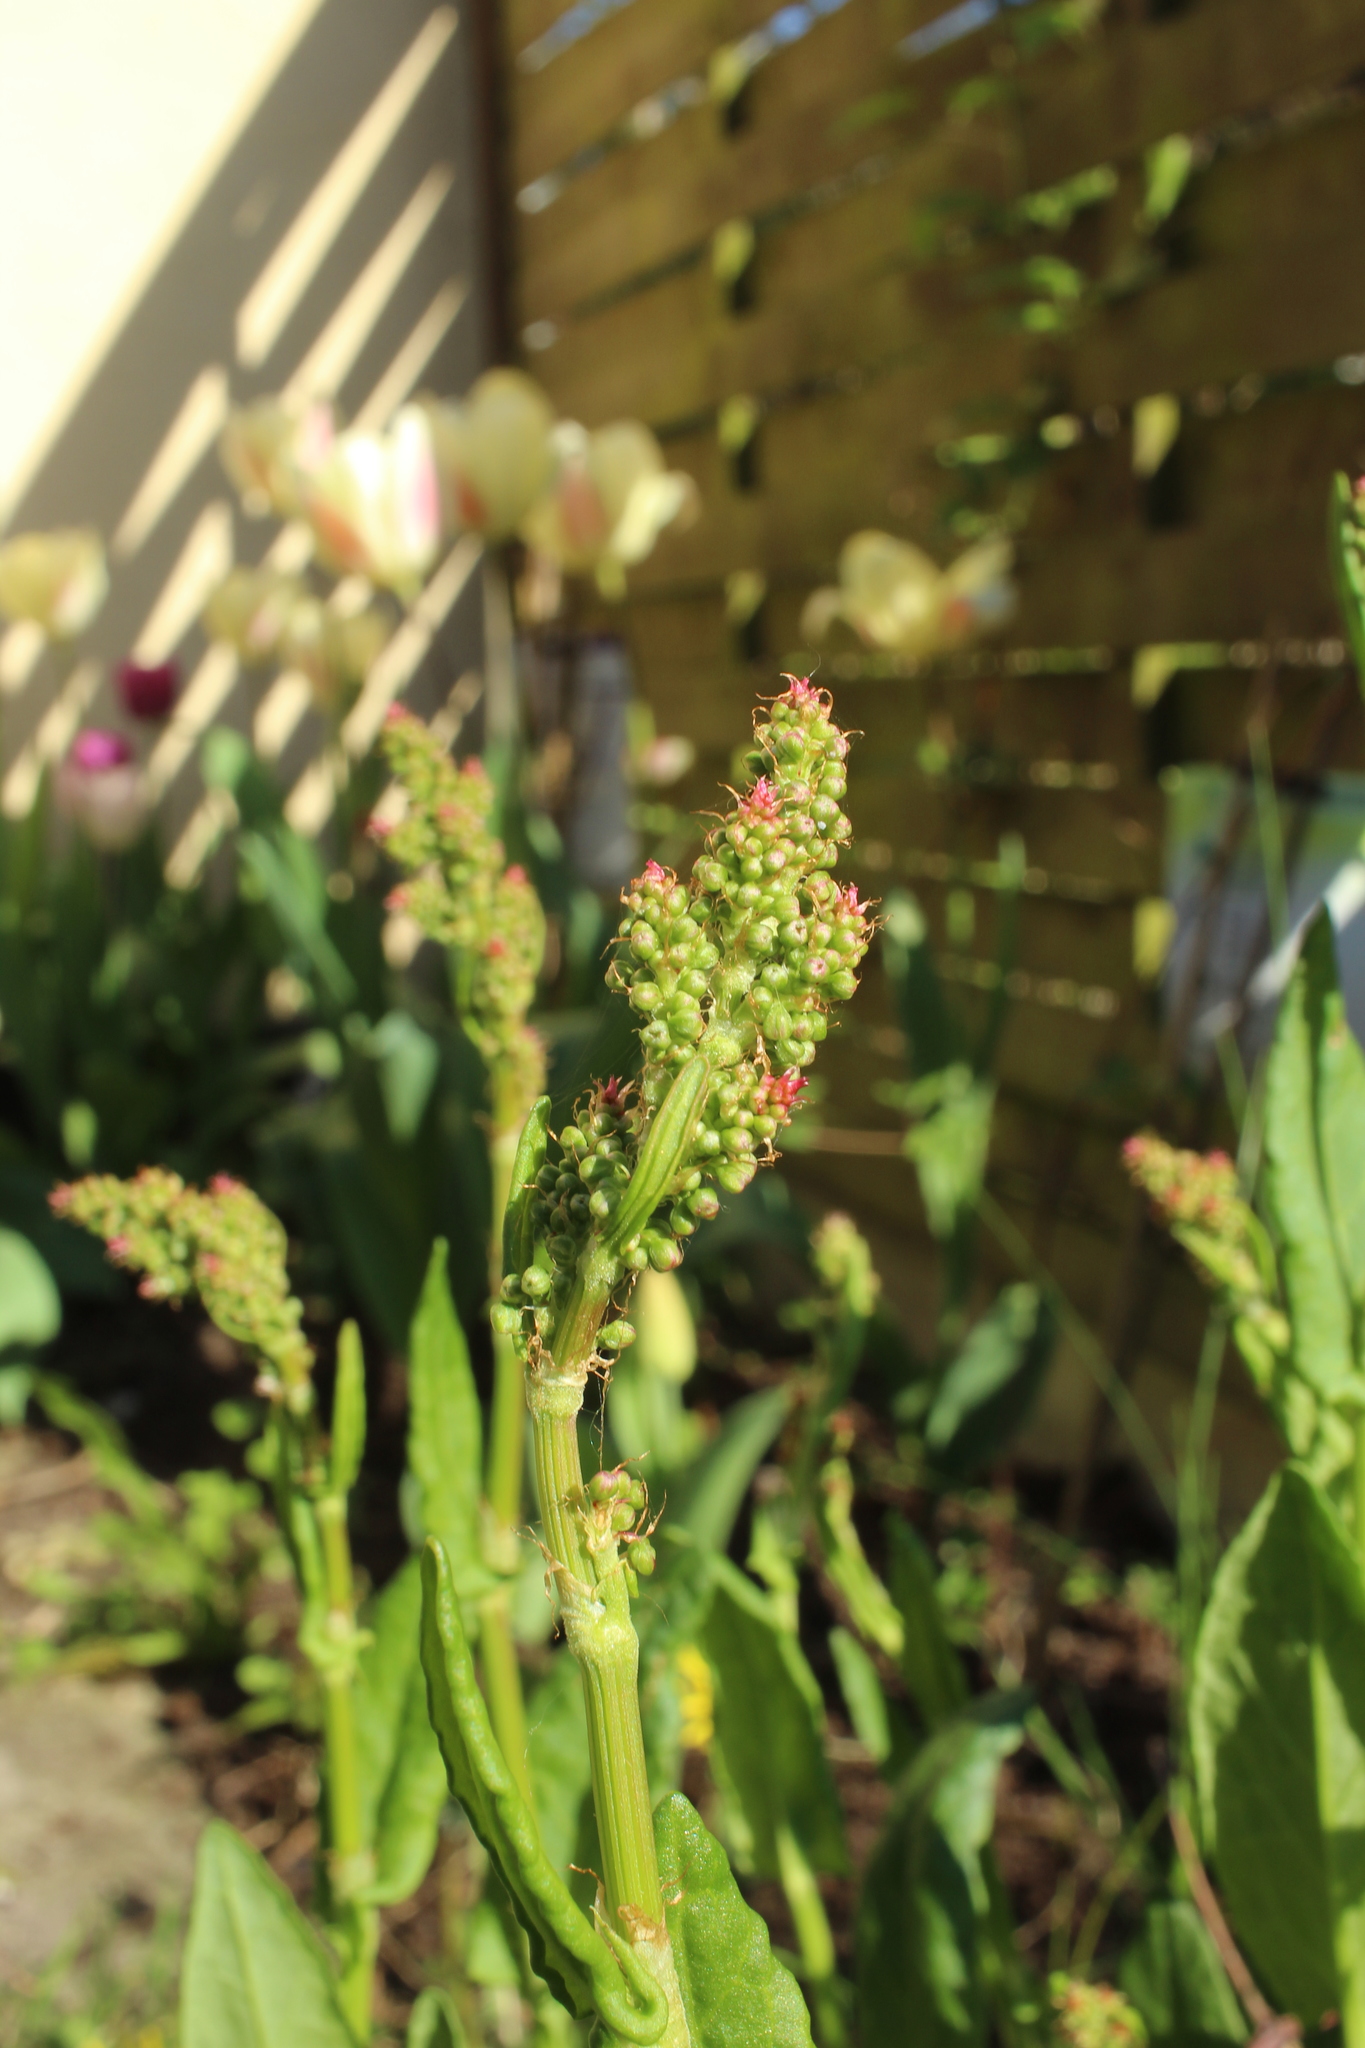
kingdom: Plantae
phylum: Tracheophyta
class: Magnoliopsida
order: Caryophyllales
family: Polygonaceae
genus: Rumex
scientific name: Rumex acetosa
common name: Garden sorrel
